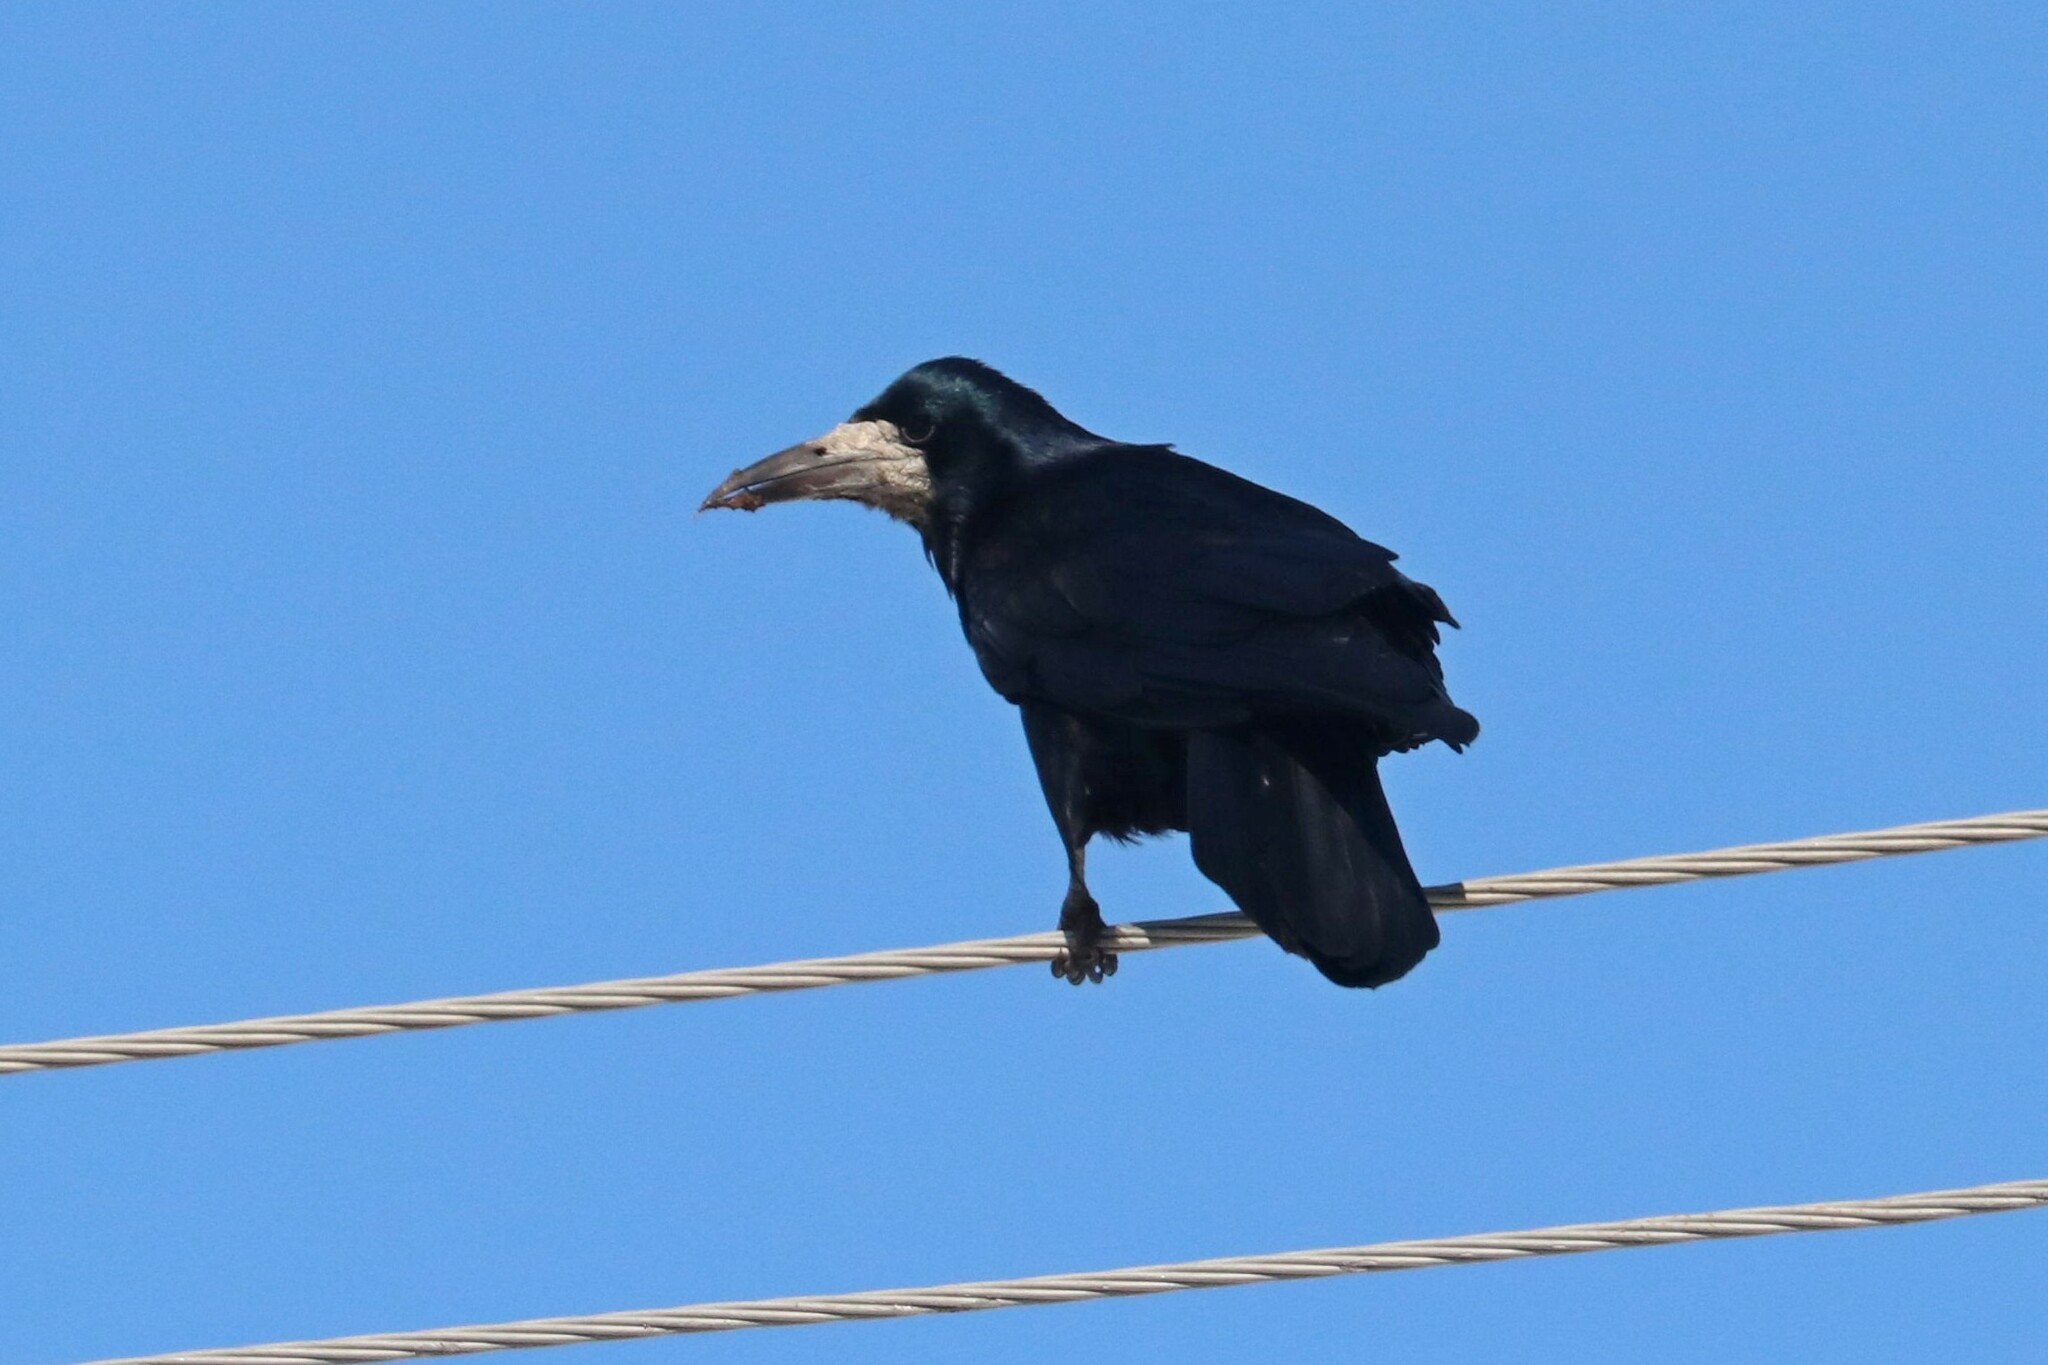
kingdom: Animalia
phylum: Chordata
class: Aves
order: Passeriformes
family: Corvidae
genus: Corvus
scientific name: Corvus frugilegus
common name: Rook
